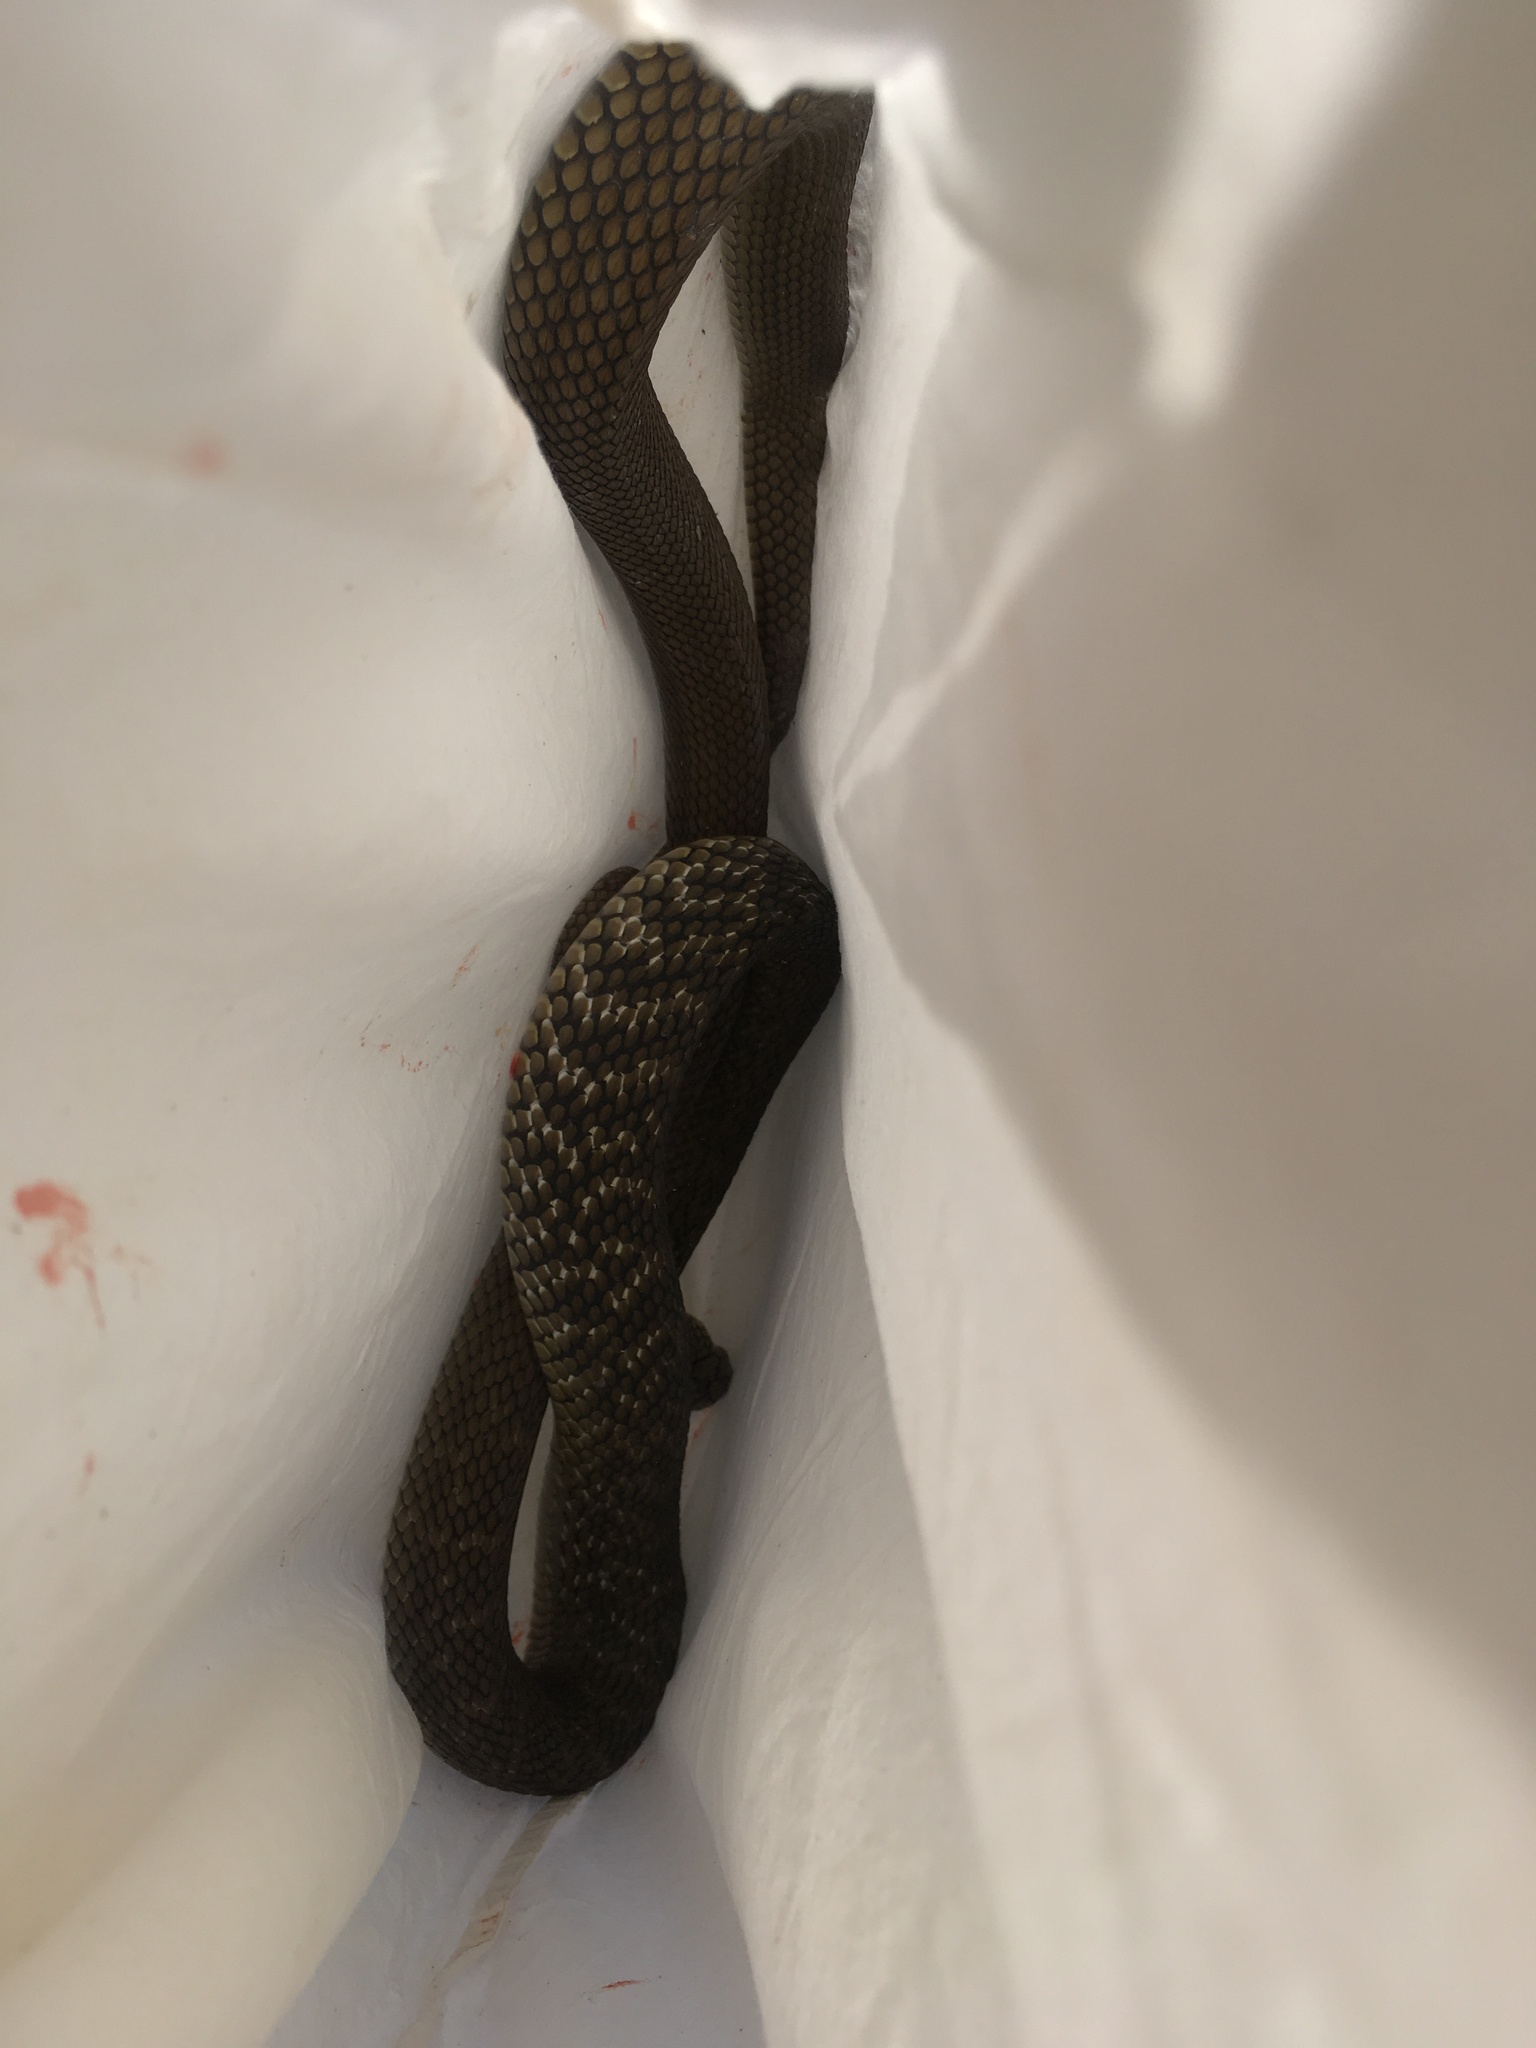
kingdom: Animalia
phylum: Chordata
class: Squamata
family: Colubridae
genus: Elaphe
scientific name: Elaphe carinata
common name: Taiwan stink snake
